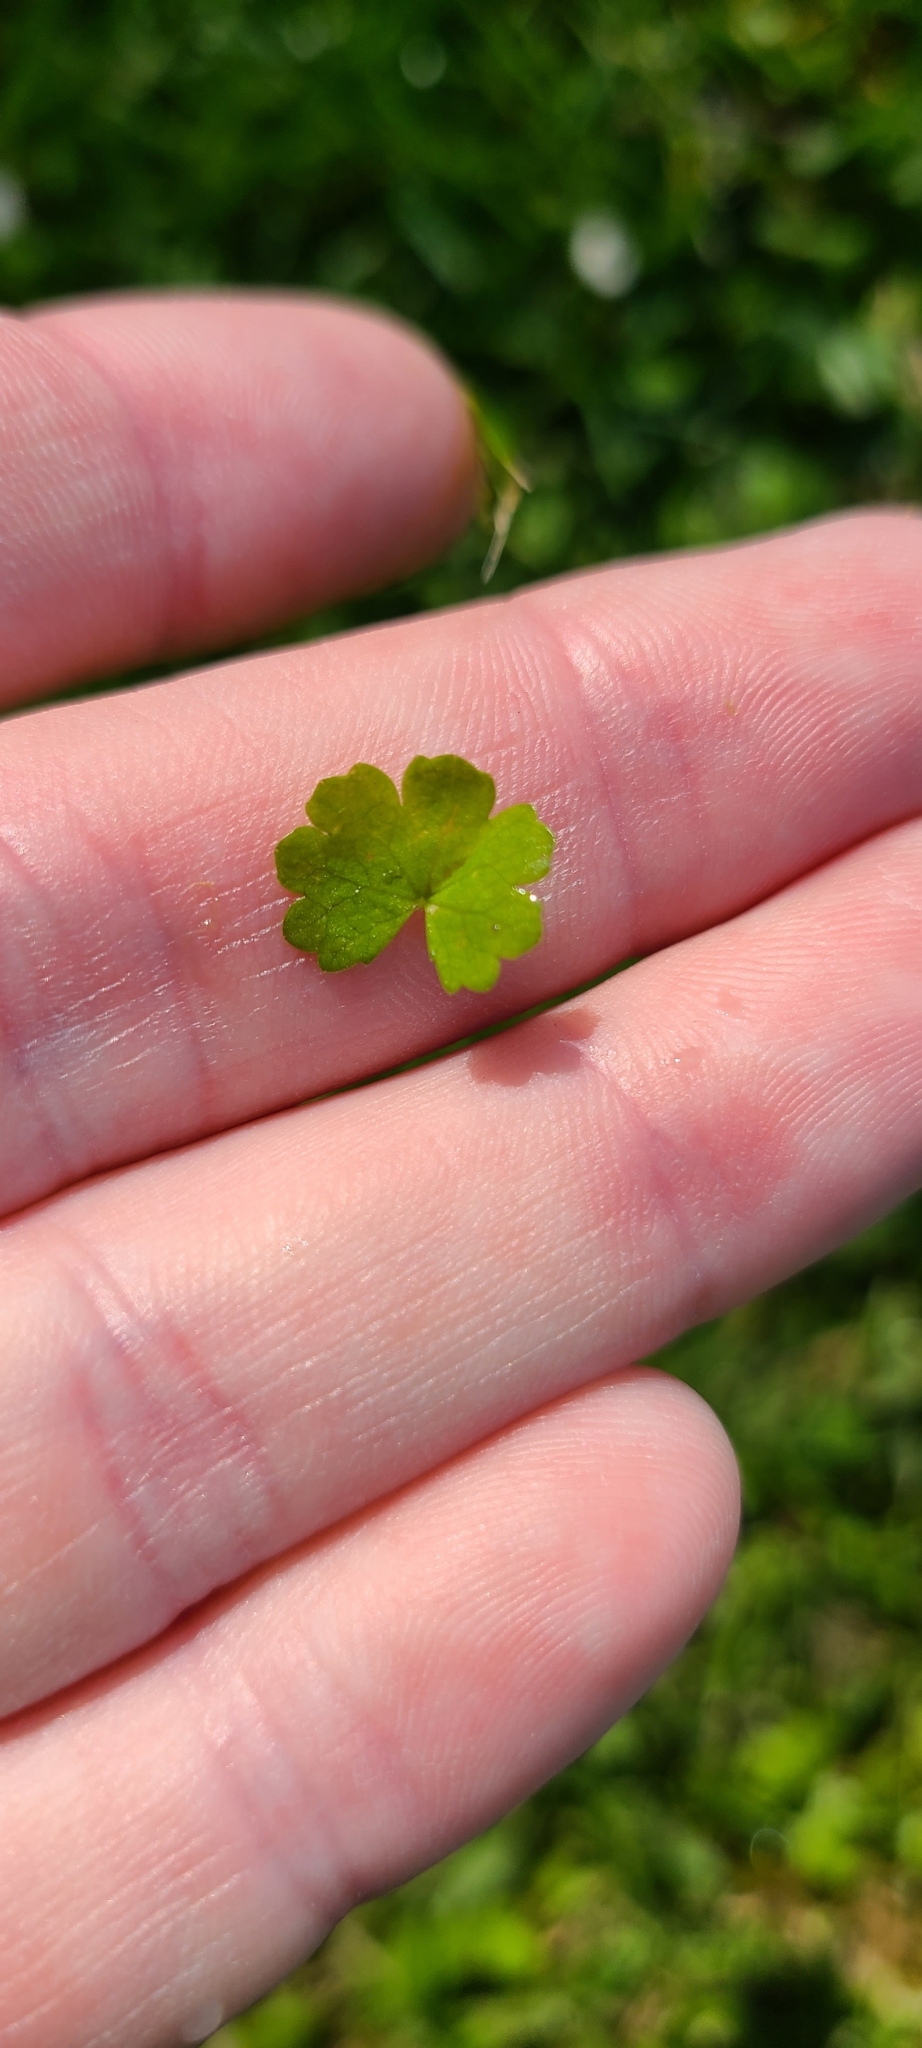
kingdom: Plantae
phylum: Tracheophyta
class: Magnoliopsida
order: Apiales
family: Araliaceae
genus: Hydrocotyle
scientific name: Hydrocotyle heteromeria
